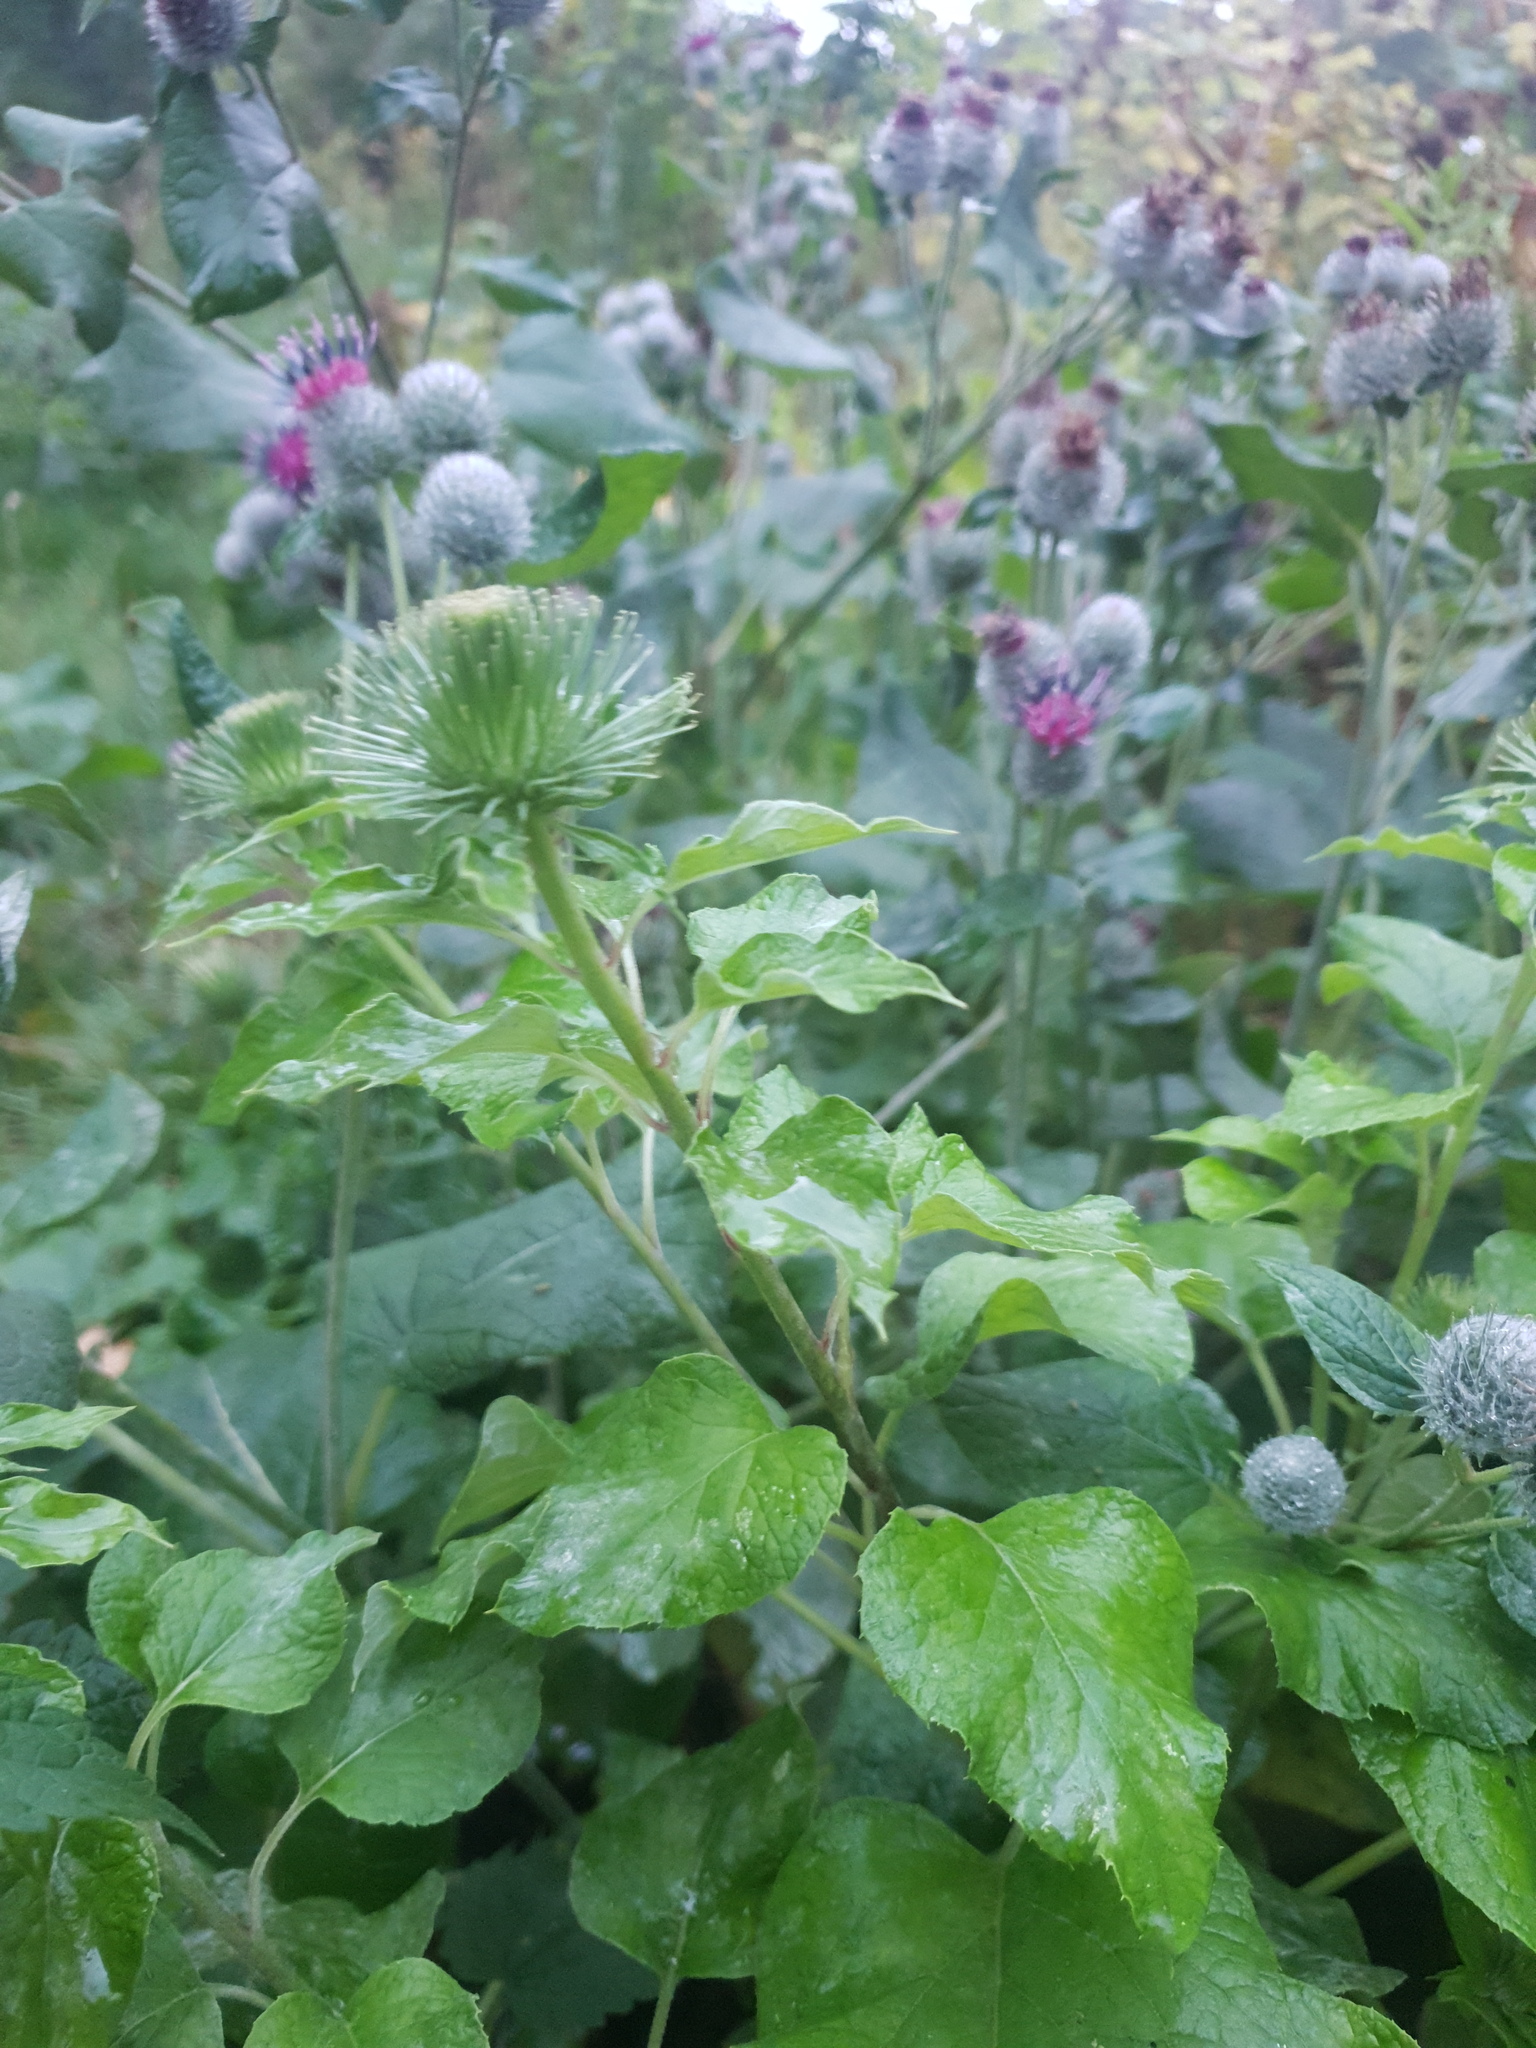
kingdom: Plantae
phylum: Tracheophyta
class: Magnoliopsida
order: Asterales
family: Asteraceae
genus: Arctium
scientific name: Arctium lappa
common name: Greater burdock
